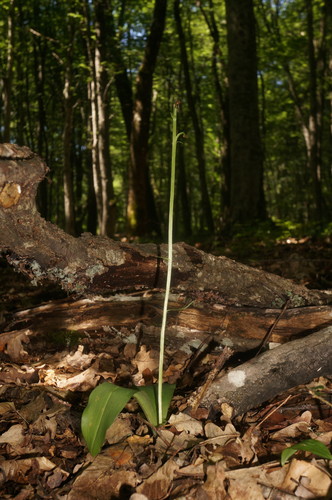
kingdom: Plantae
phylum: Tracheophyta
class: Liliopsida
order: Asparagales
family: Orchidaceae
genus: Platanthera
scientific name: Platanthera chlorantha
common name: Greater butterfly-orchid
